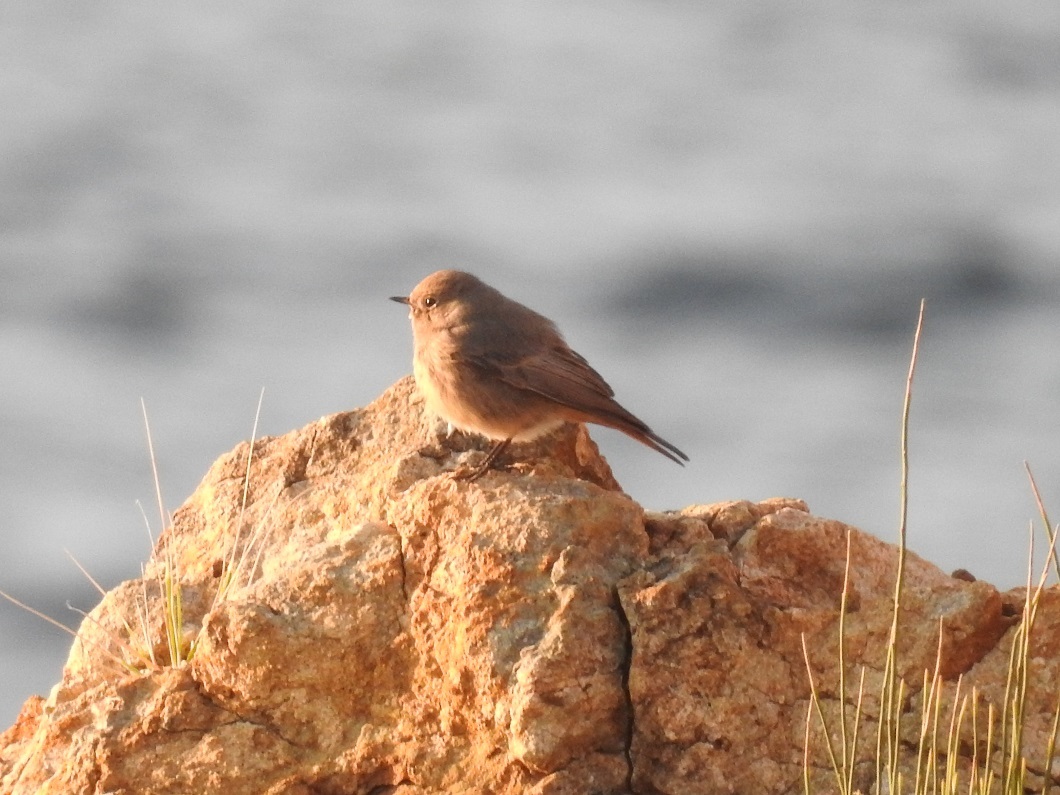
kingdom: Animalia
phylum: Chordata
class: Aves
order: Passeriformes
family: Muscicapidae
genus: Phoenicurus
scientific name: Phoenicurus ochruros
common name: Black redstart
